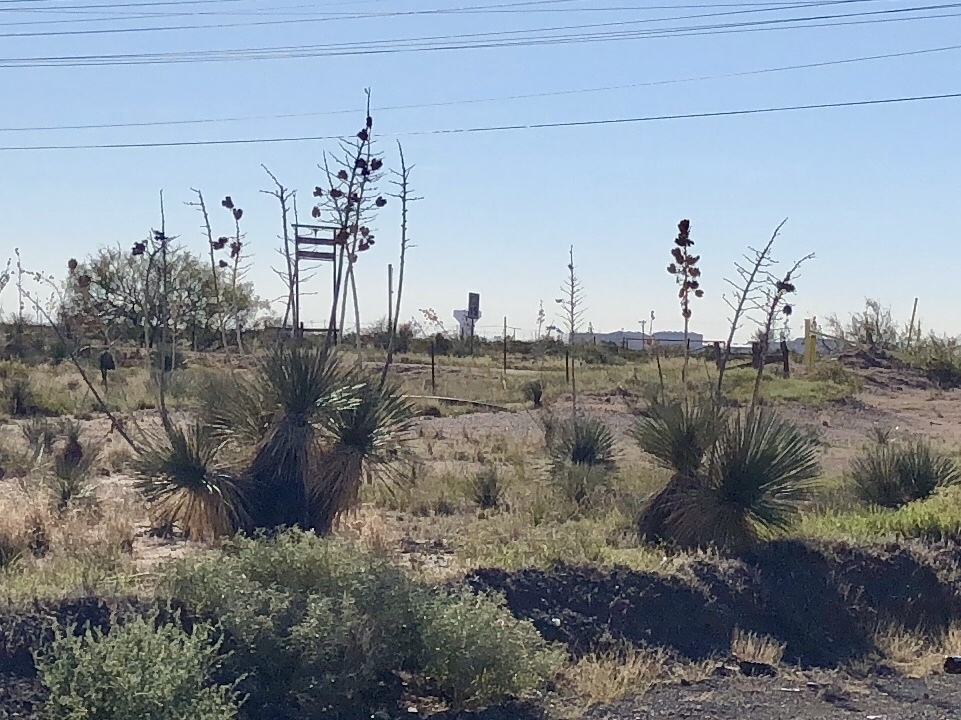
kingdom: Plantae
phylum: Tracheophyta
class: Liliopsida
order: Asparagales
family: Asparagaceae
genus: Yucca
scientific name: Yucca elata
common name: Palmella
